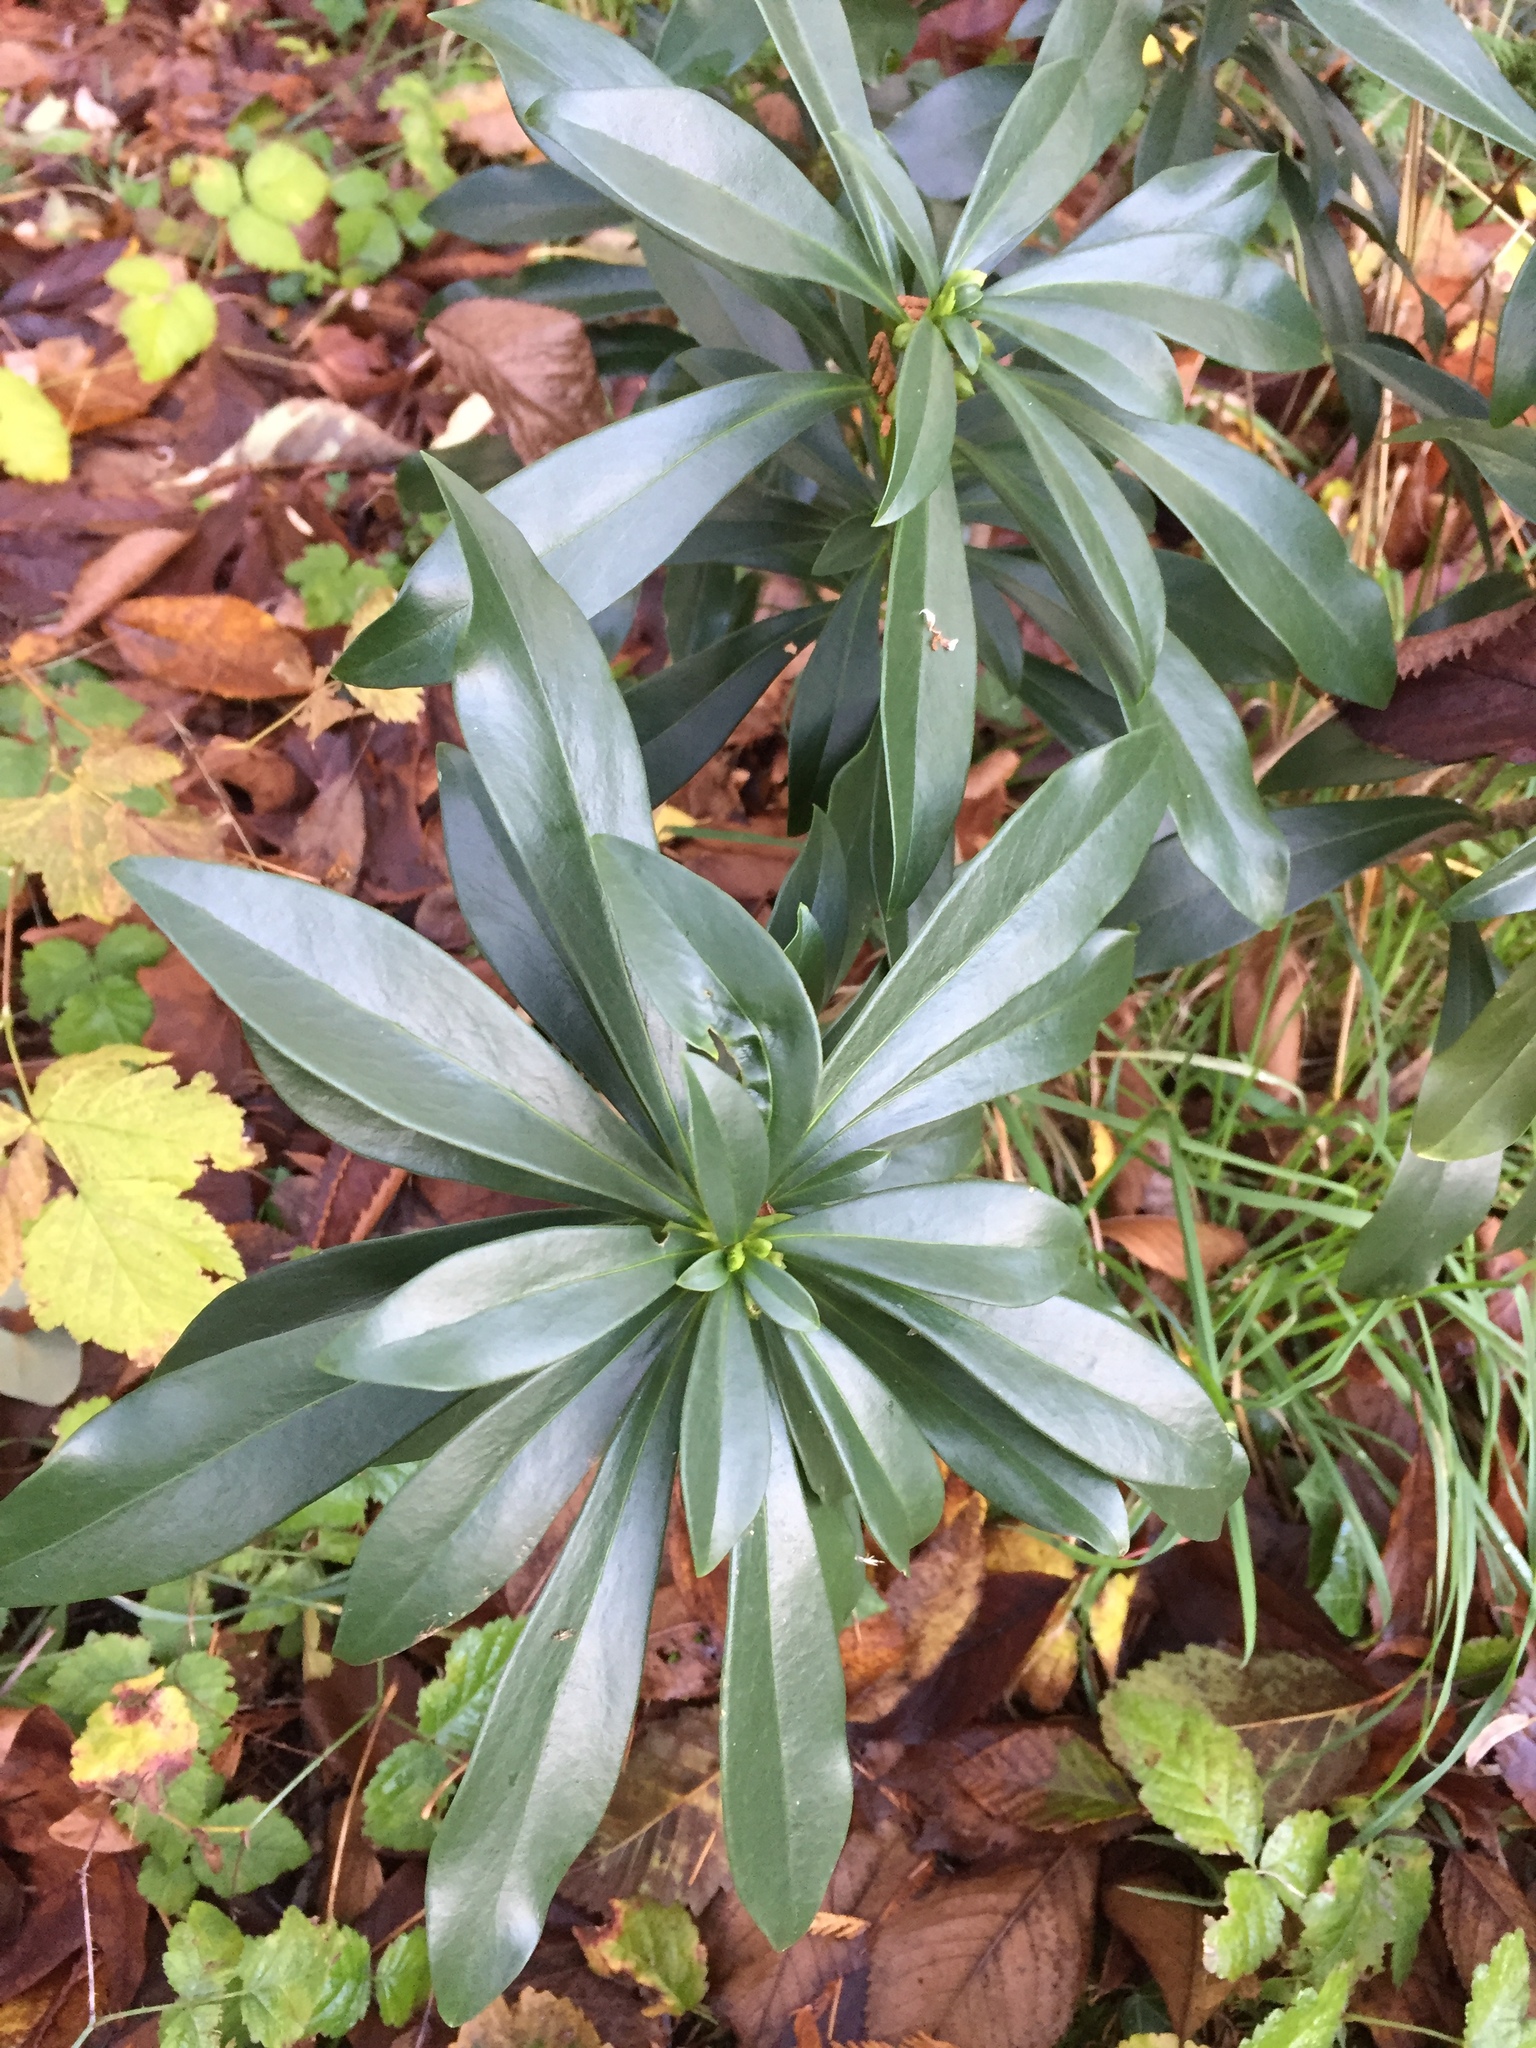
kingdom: Plantae
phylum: Tracheophyta
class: Magnoliopsida
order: Malvales
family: Thymelaeaceae
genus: Daphne
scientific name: Daphne laureola
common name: Spurge-laurel
